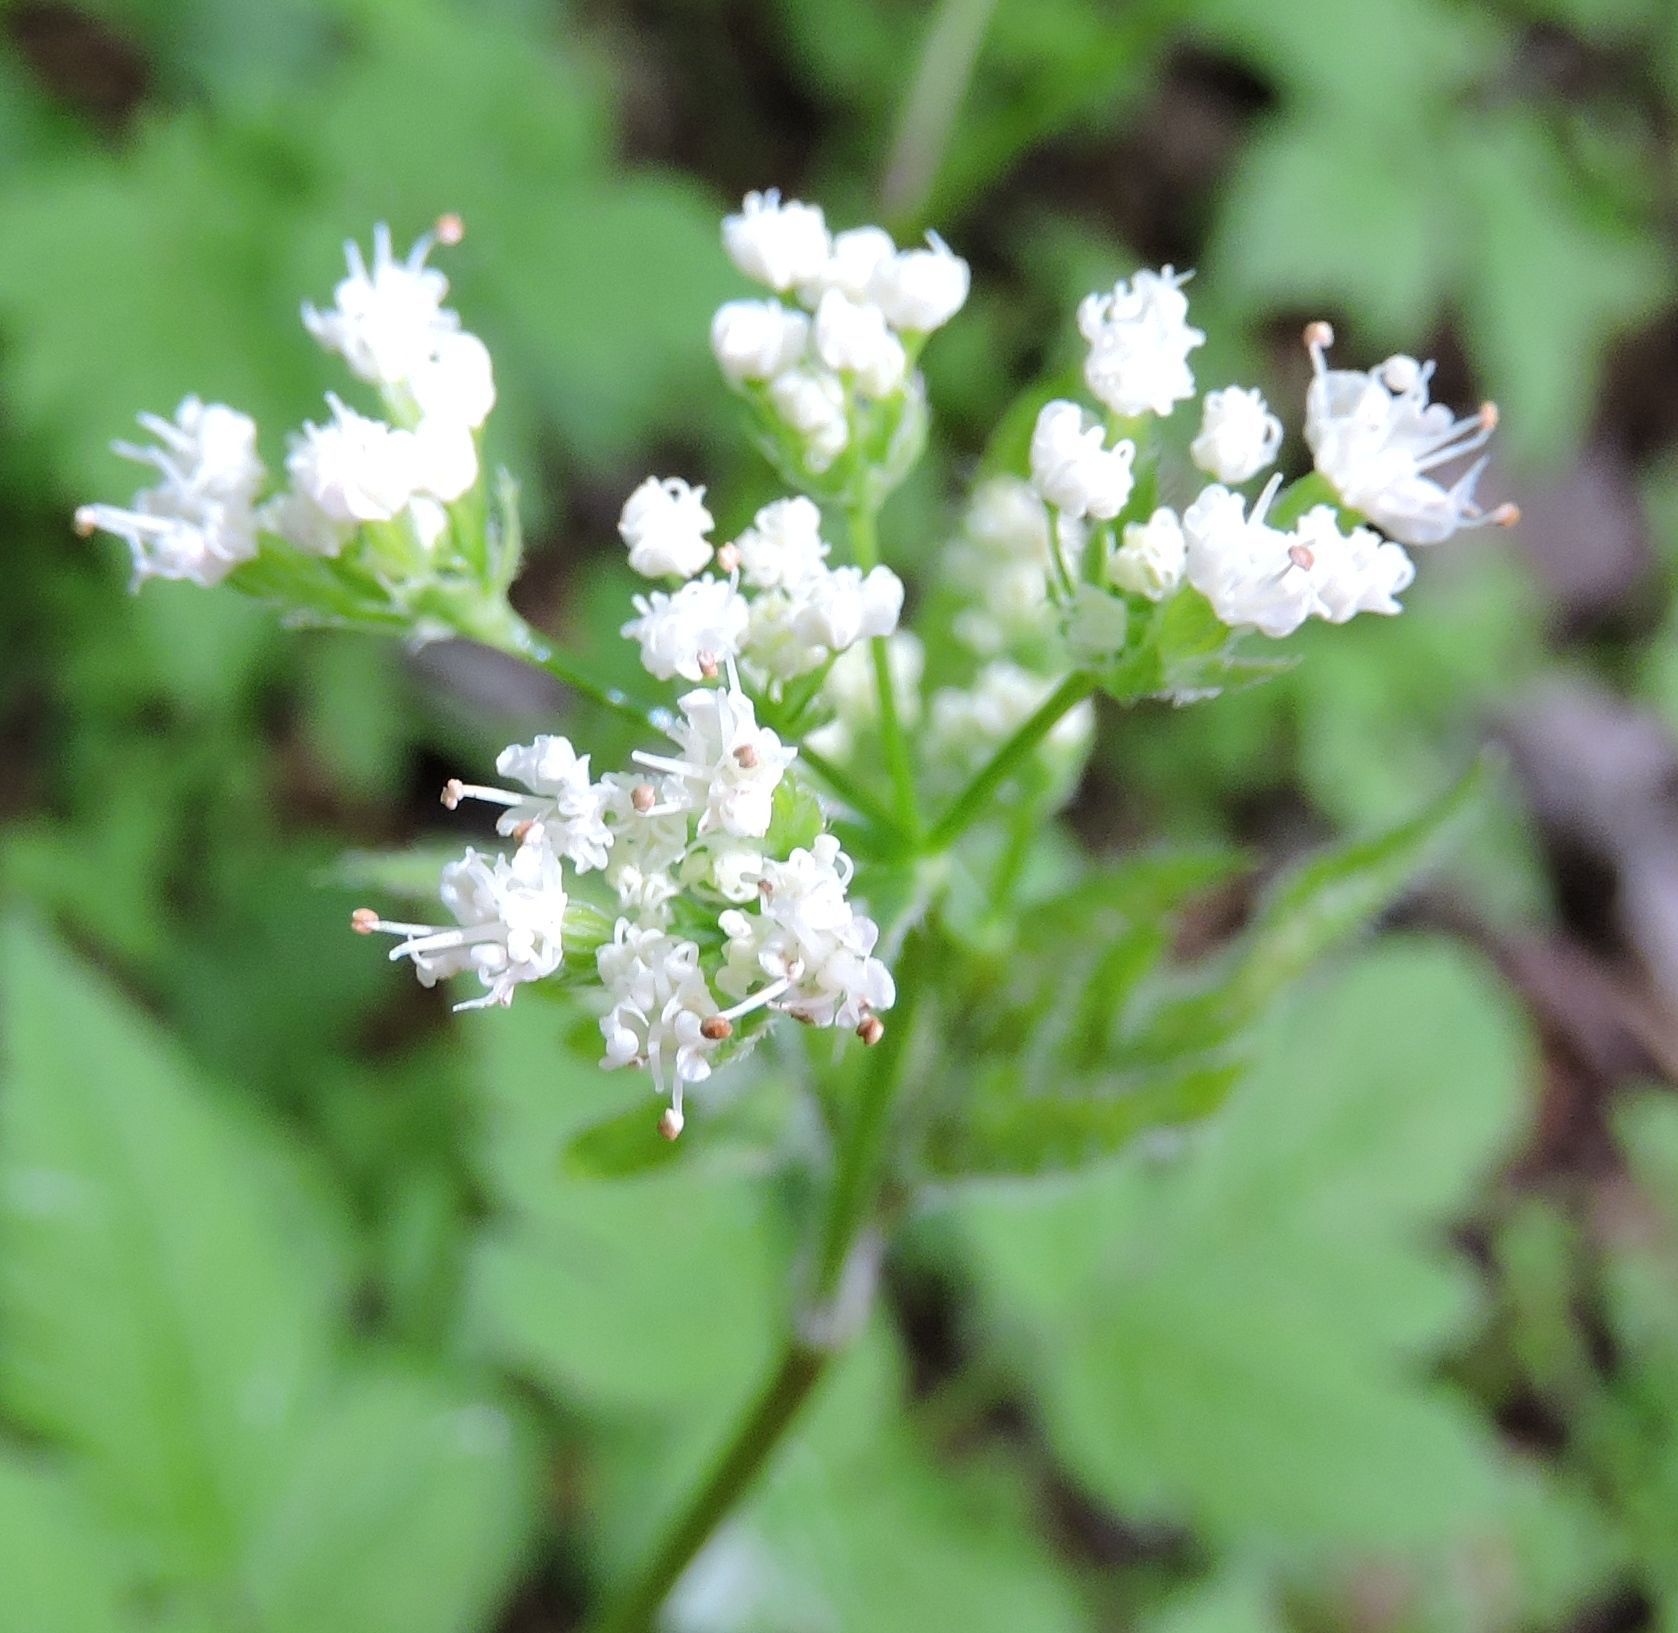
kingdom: Plantae
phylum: Tracheophyta
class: Magnoliopsida
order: Apiales
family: Apiaceae
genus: Osmorhiza
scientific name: Osmorhiza longistylis
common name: Smooth sweet cicely
